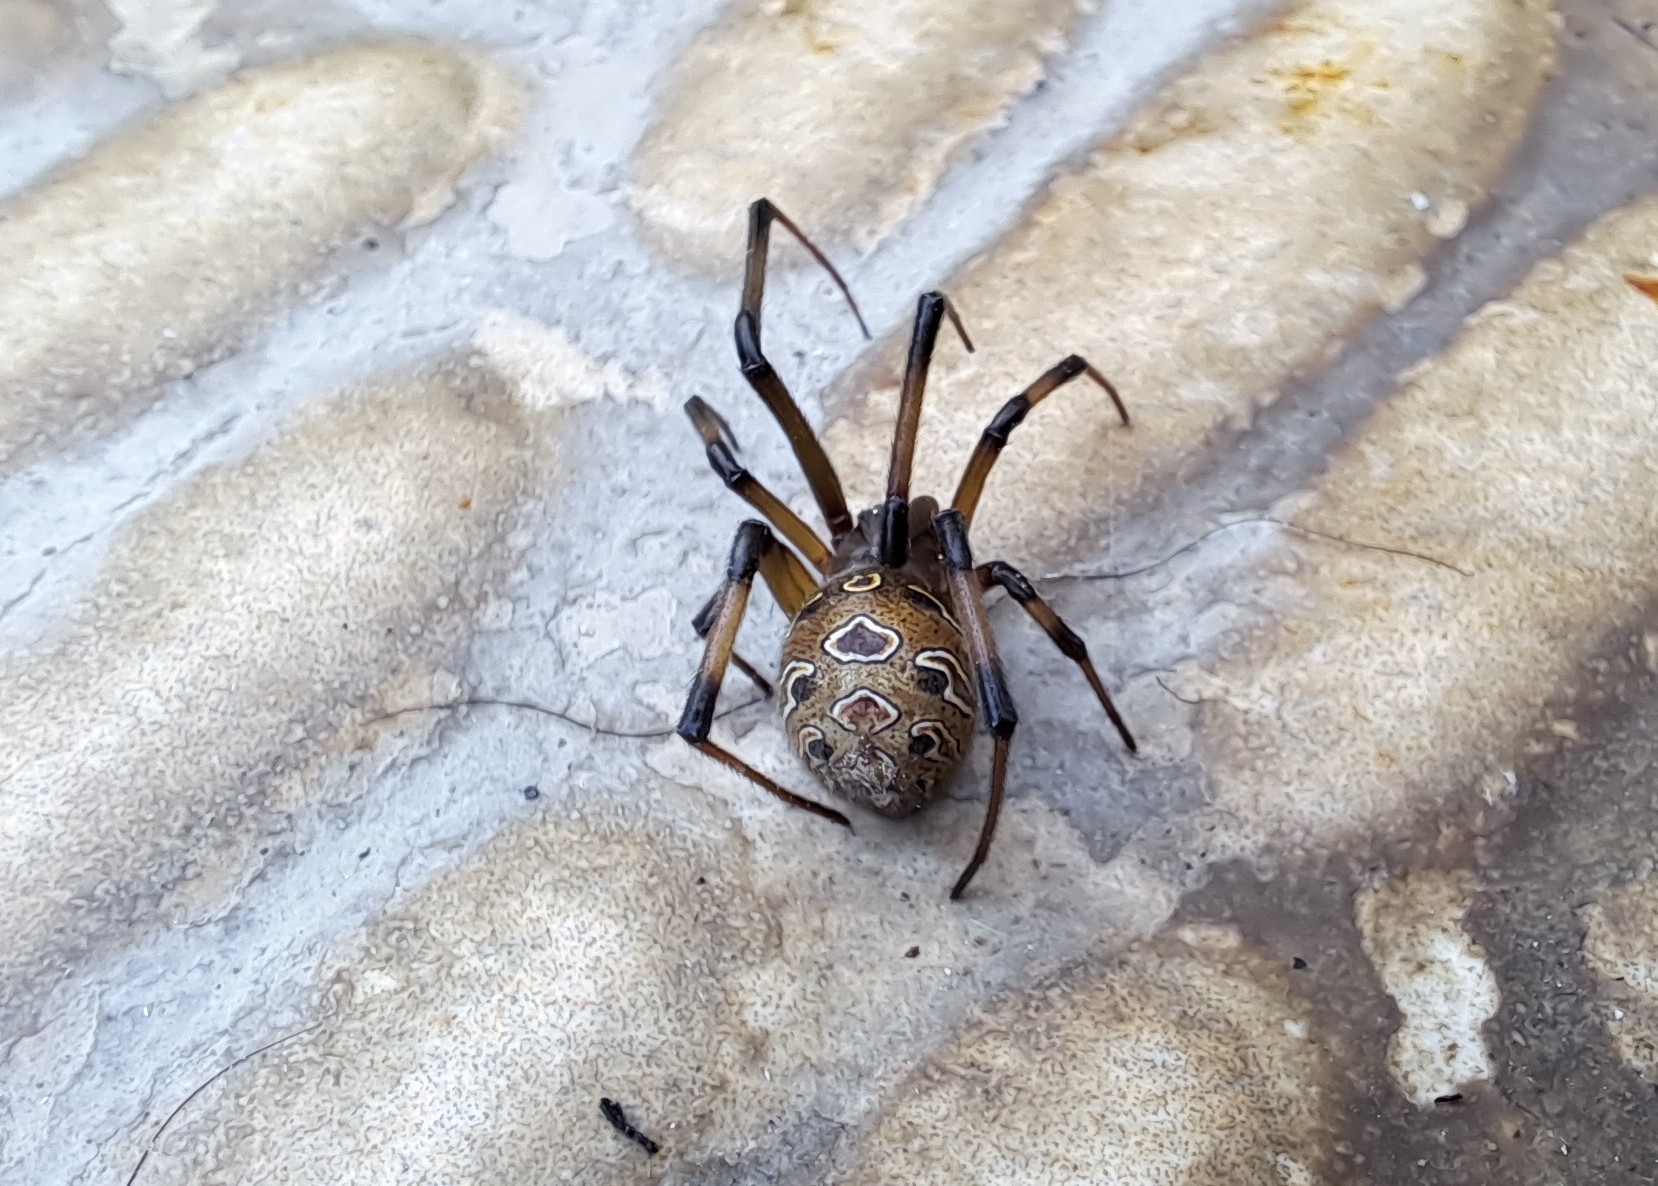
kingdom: Animalia
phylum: Arthropoda
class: Arachnida
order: Araneae
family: Theridiidae
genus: Latrodectus
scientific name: Latrodectus geometricus
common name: Brown widow spider
